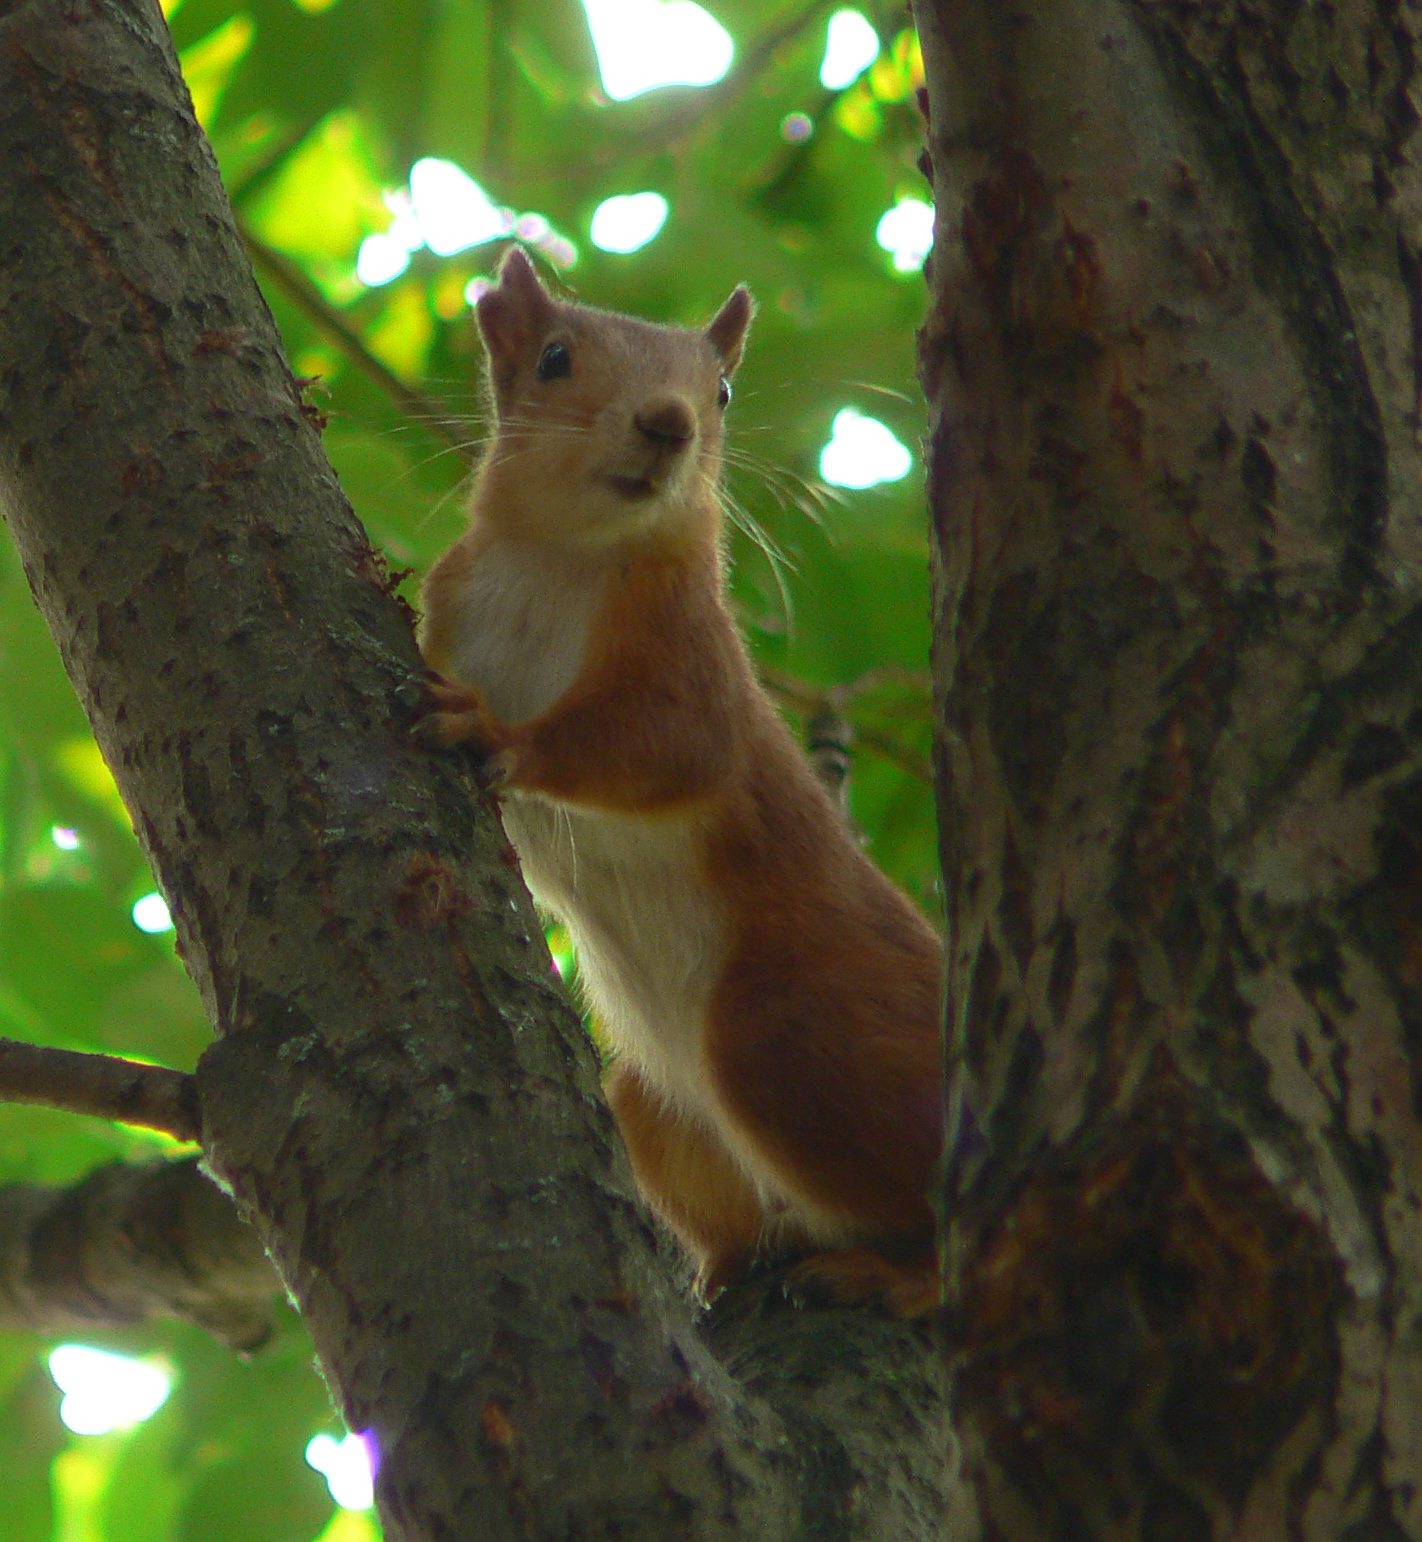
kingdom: Animalia
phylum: Chordata
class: Mammalia
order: Rodentia
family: Sciuridae
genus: Sciurus
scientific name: Sciurus vulgaris
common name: Eurasian red squirrel
